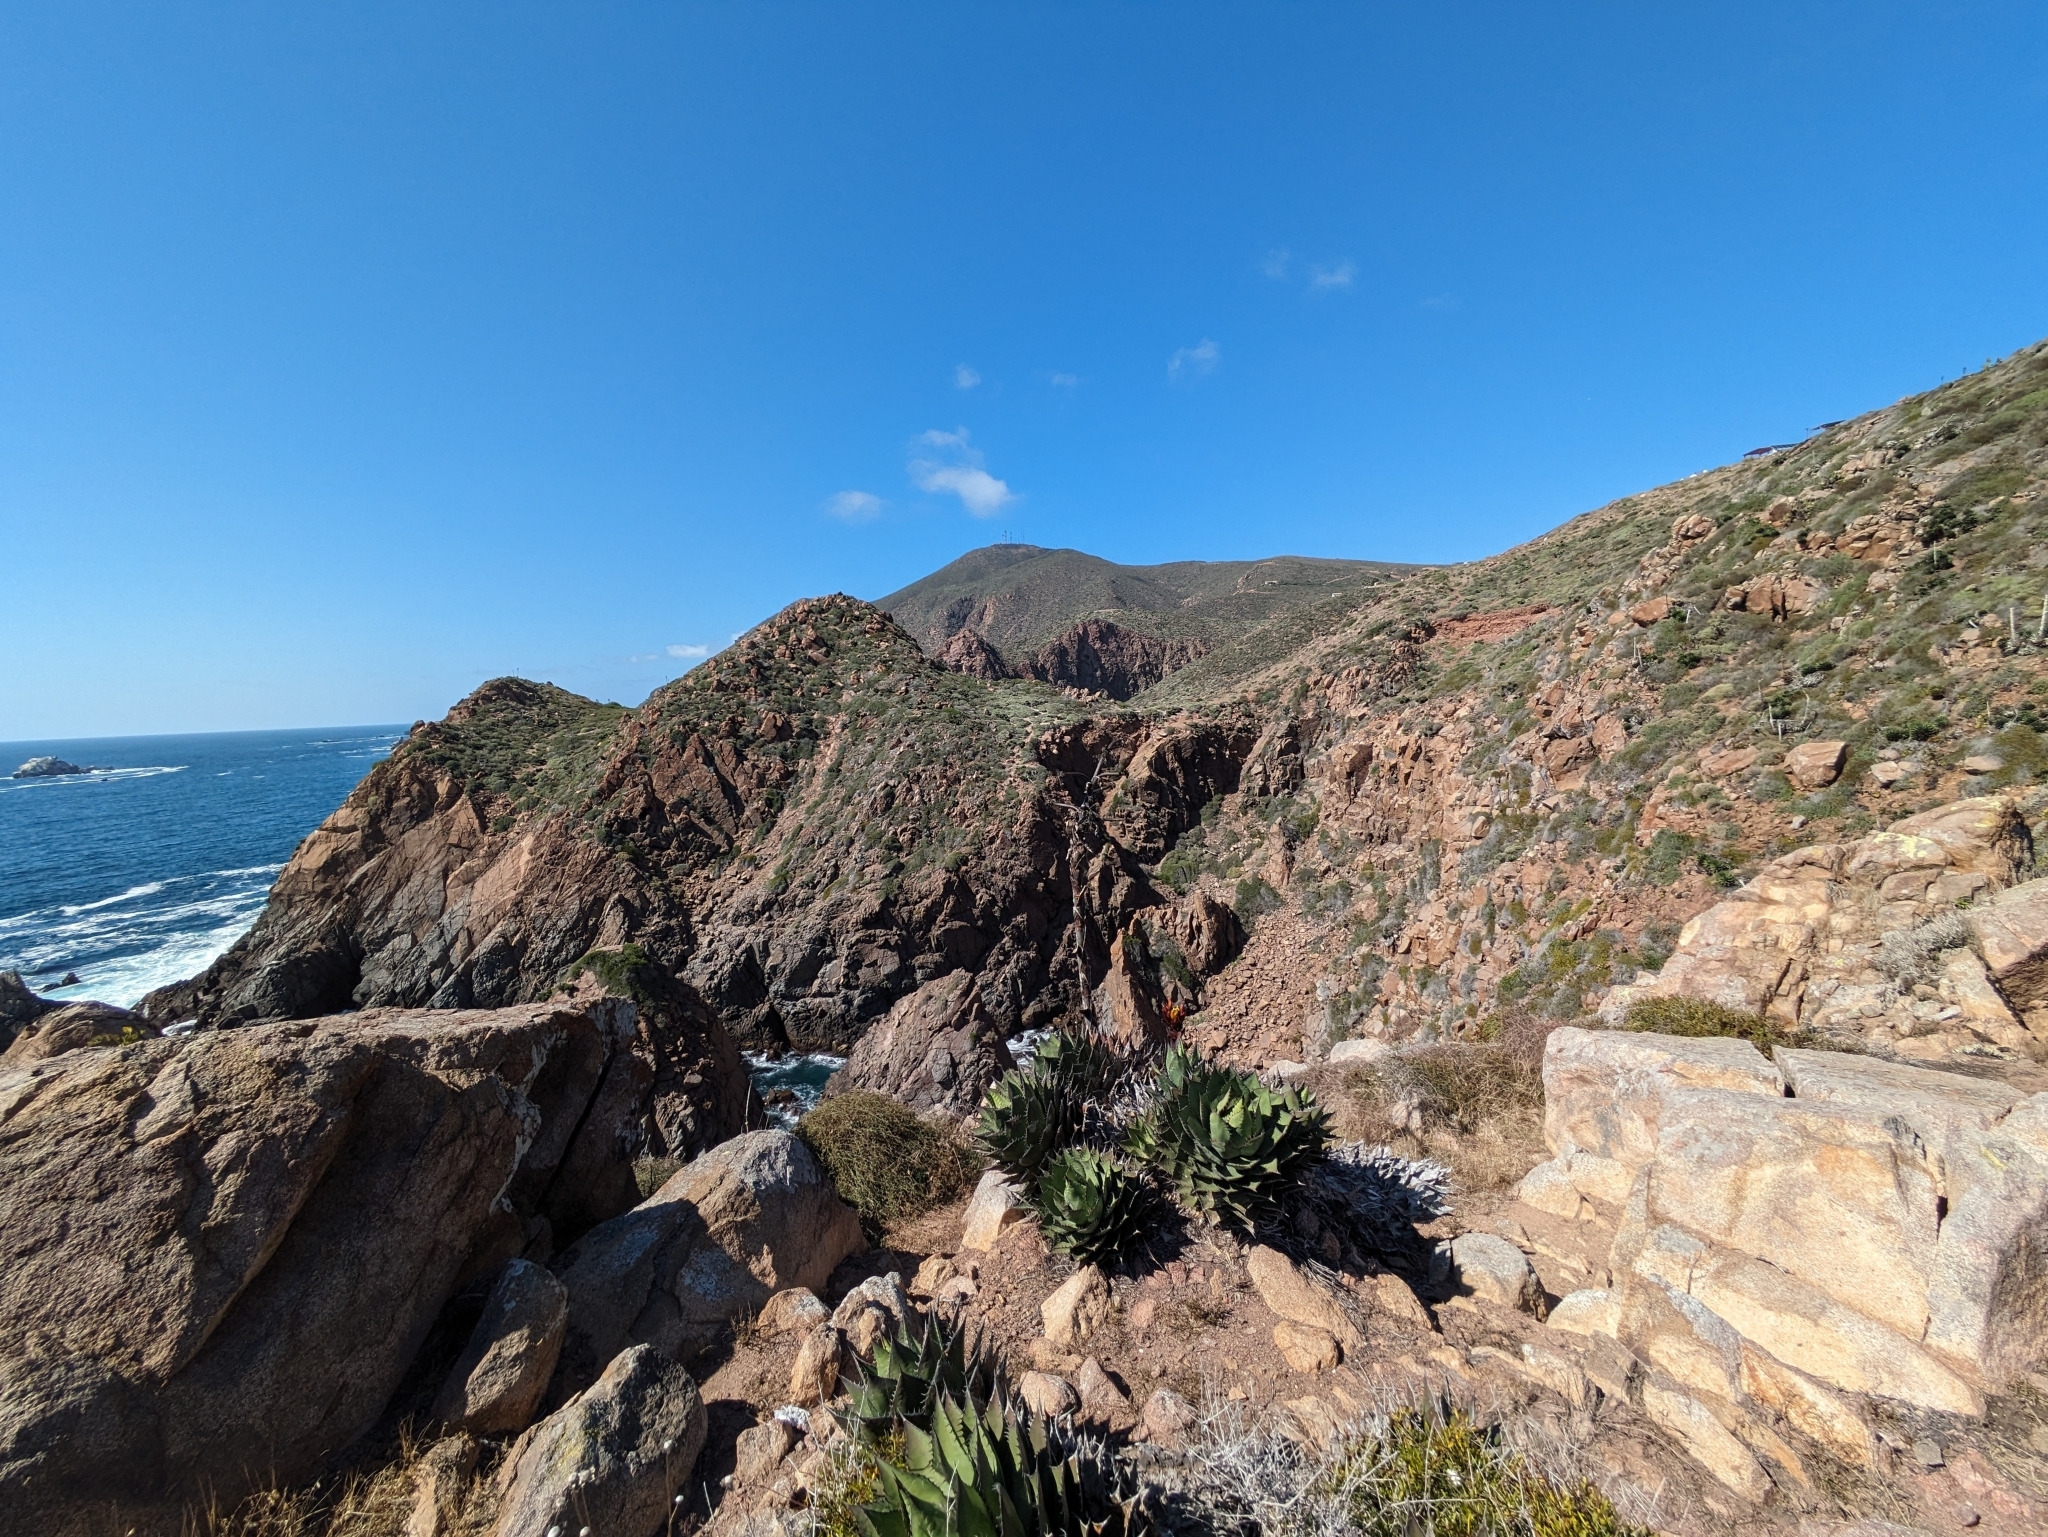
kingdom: Plantae
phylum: Tracheophyta
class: Liliopsida
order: Asparagales
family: Asparagaceae
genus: Agave
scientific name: Agave shawii
